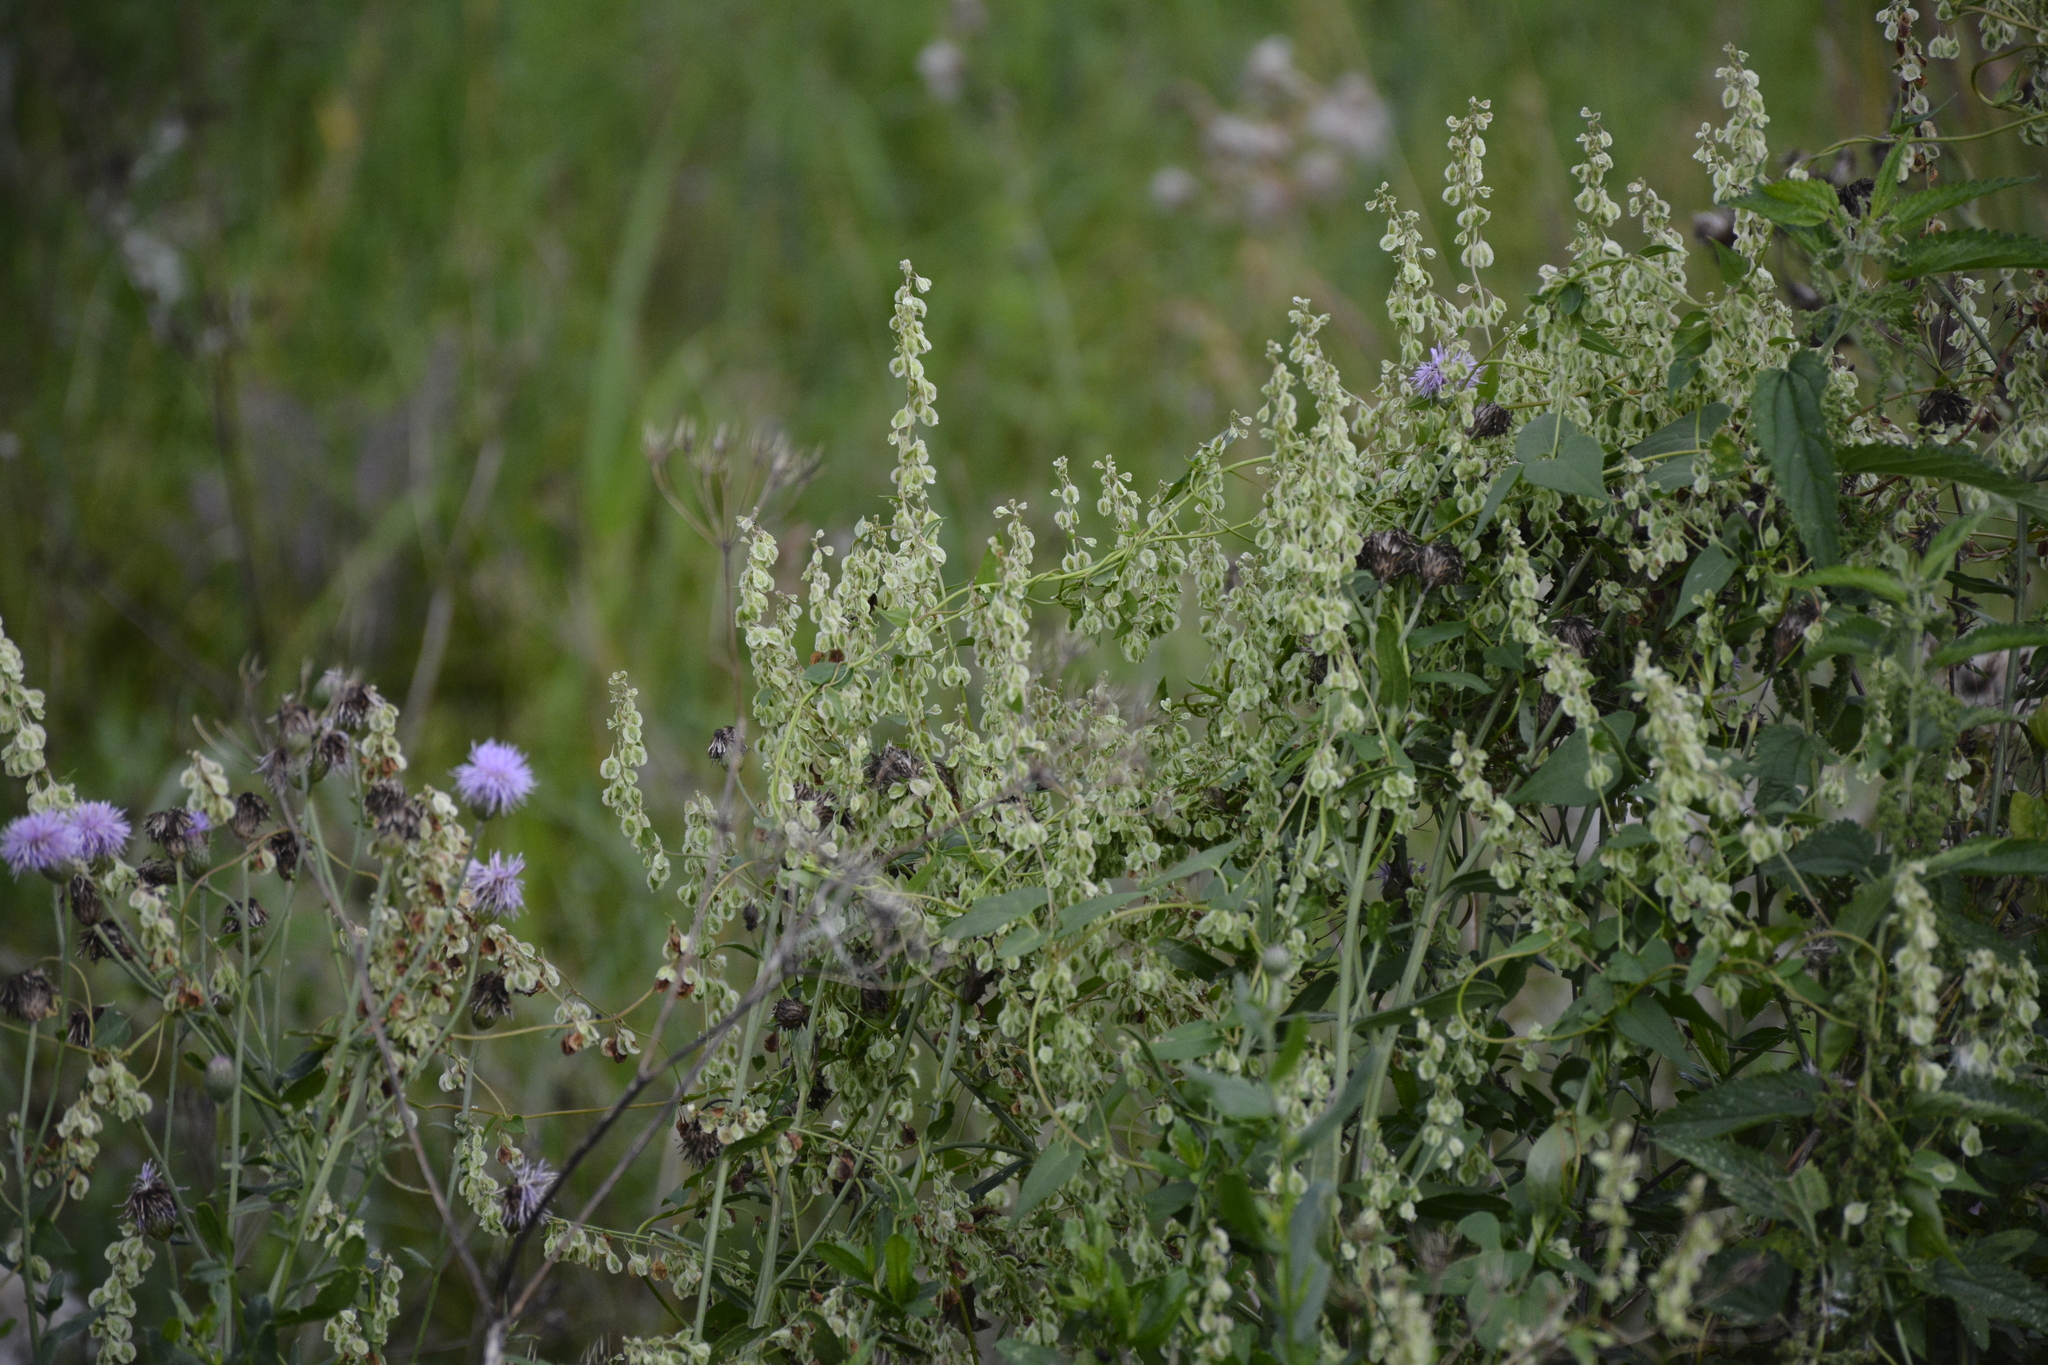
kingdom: Plantae
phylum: Tracheophyta
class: Magnoliopsida
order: Caryophyllales
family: Polygonaceae
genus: Fallopia
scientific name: Fallopia dumetorum
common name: Copse-bindweed
